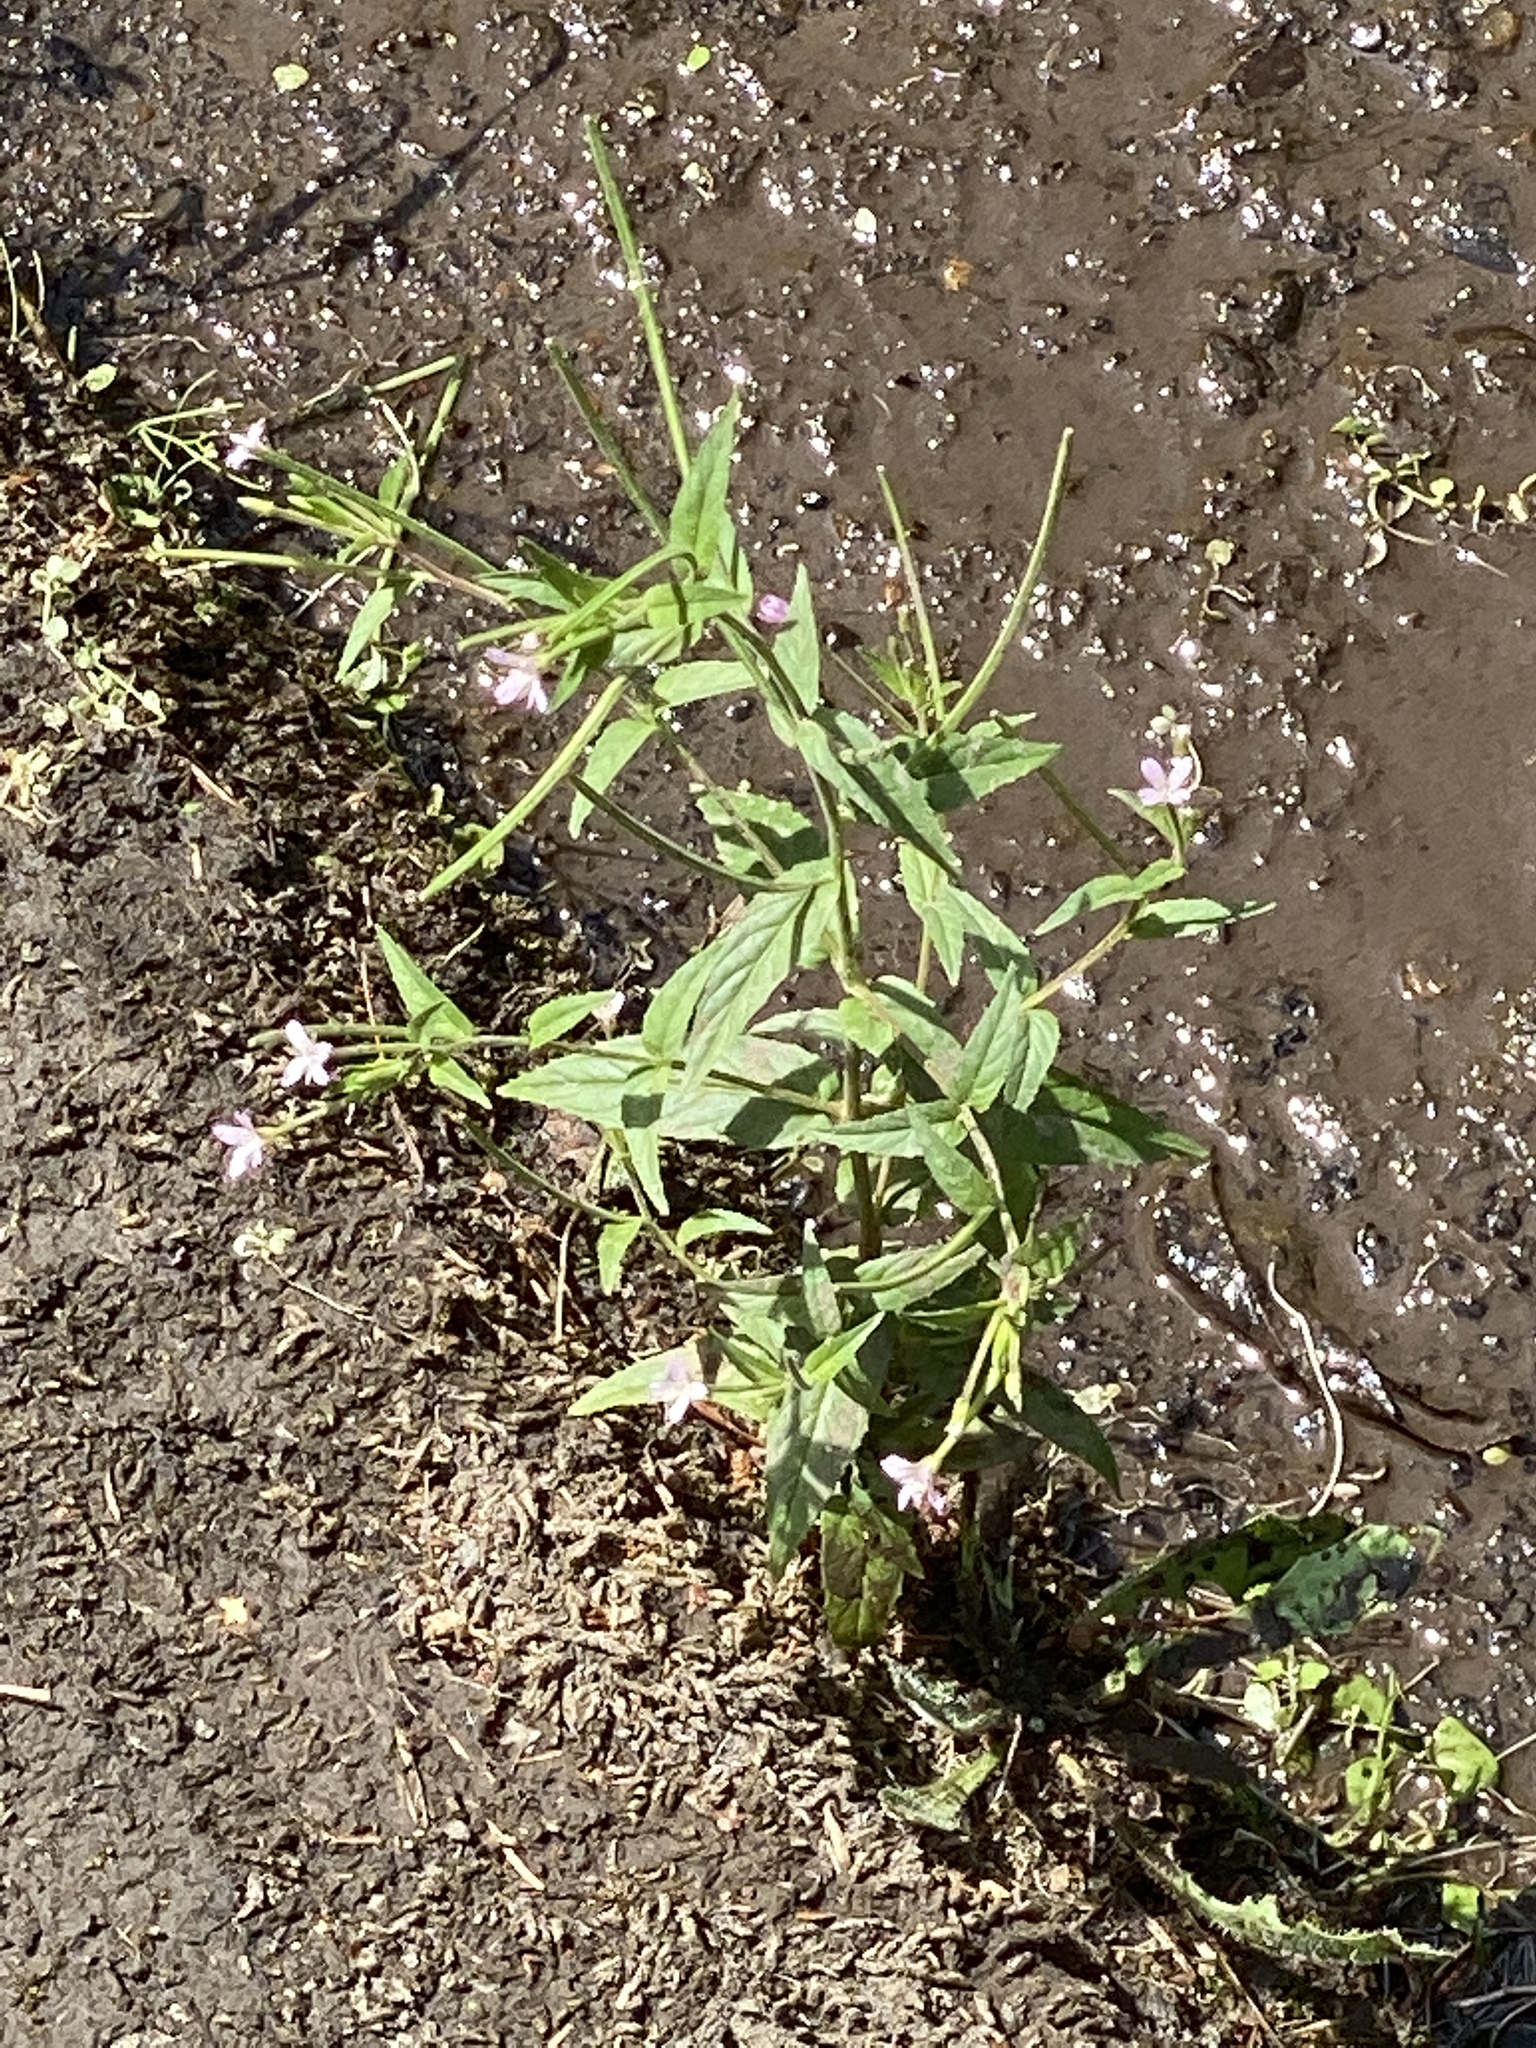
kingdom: Plantae
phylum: Tracheophyta
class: Magnoliopsida
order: Myrtales
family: Onagraceae
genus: Epilobium
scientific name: Epilobium ciliatum
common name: American willowherb
